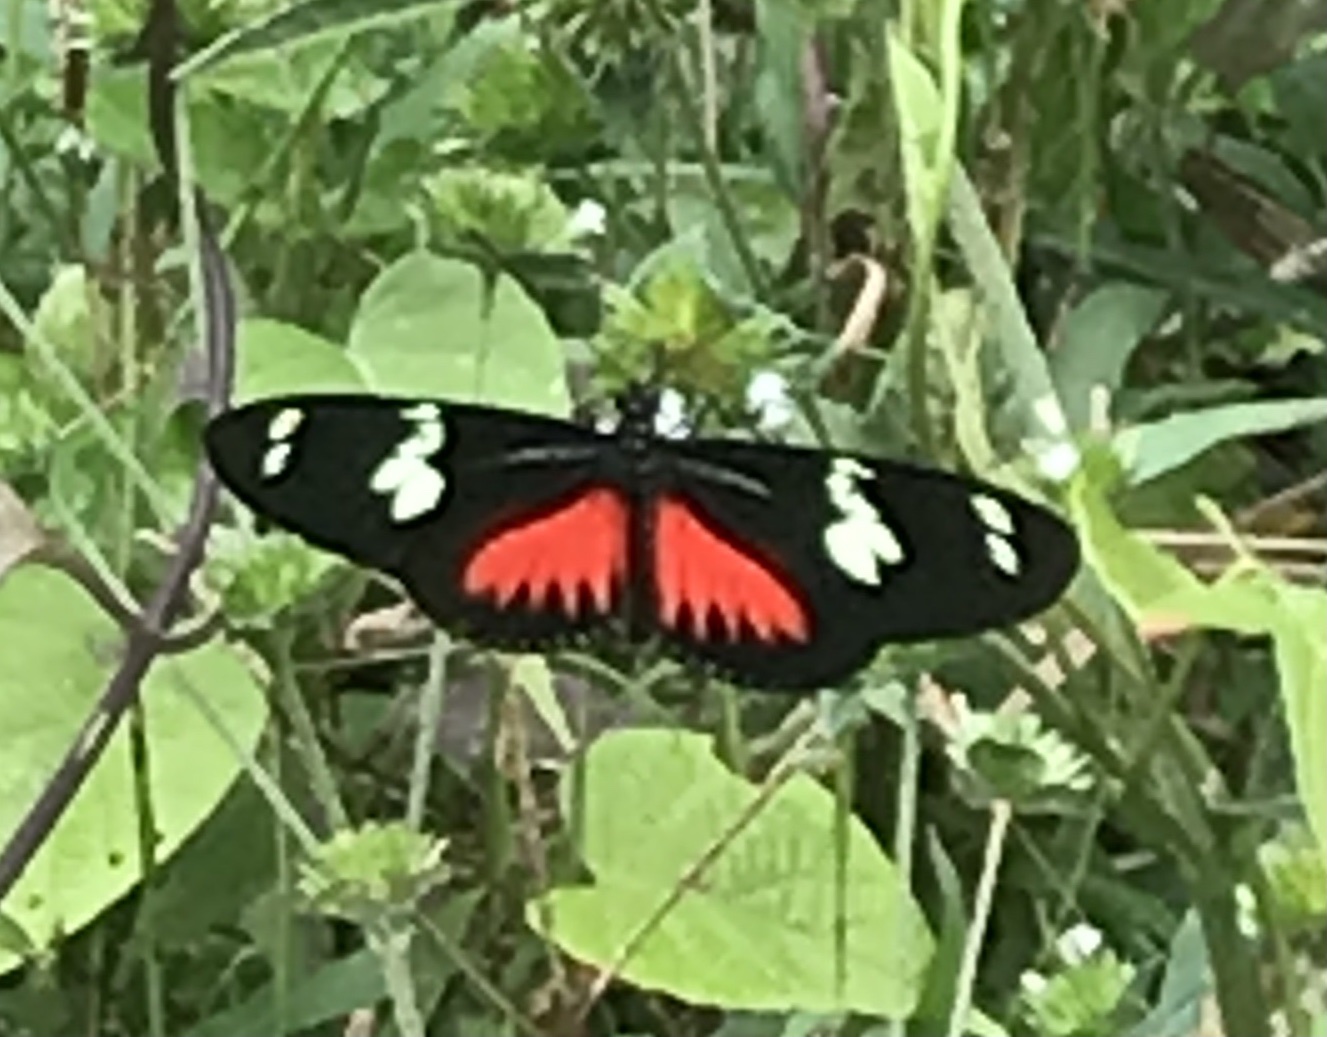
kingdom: Animalia
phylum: Arthropoda
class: Insecta
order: Lepidoptera
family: Nymphalidae
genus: Heliconius
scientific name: Heliconius doris
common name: Doris longwing
